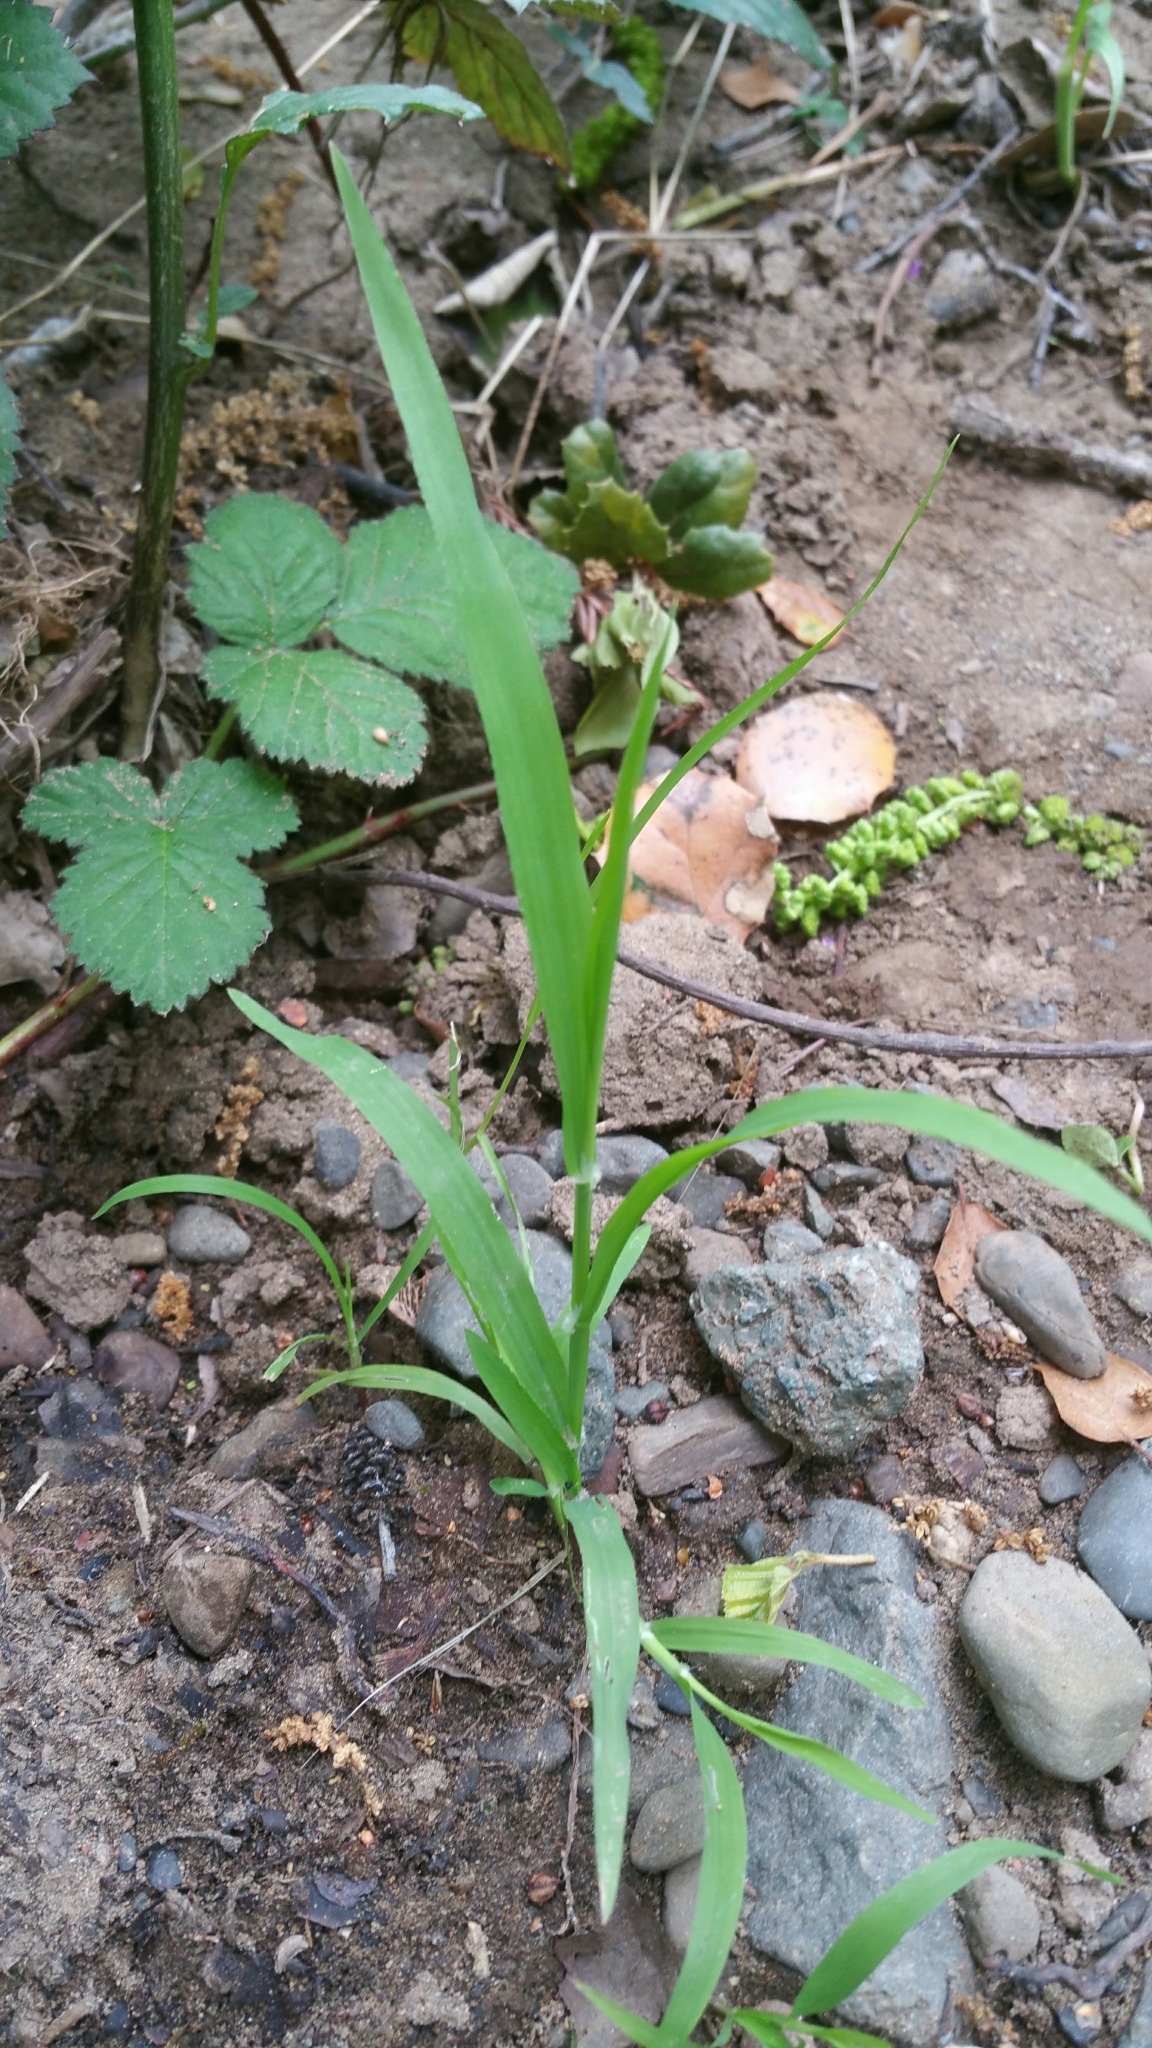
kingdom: Plantae
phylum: Tracheophyta
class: Liliopsida
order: Poales
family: Poaceae
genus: Ehrharta
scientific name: Ehrharta erecta
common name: Panic veldtgrass
